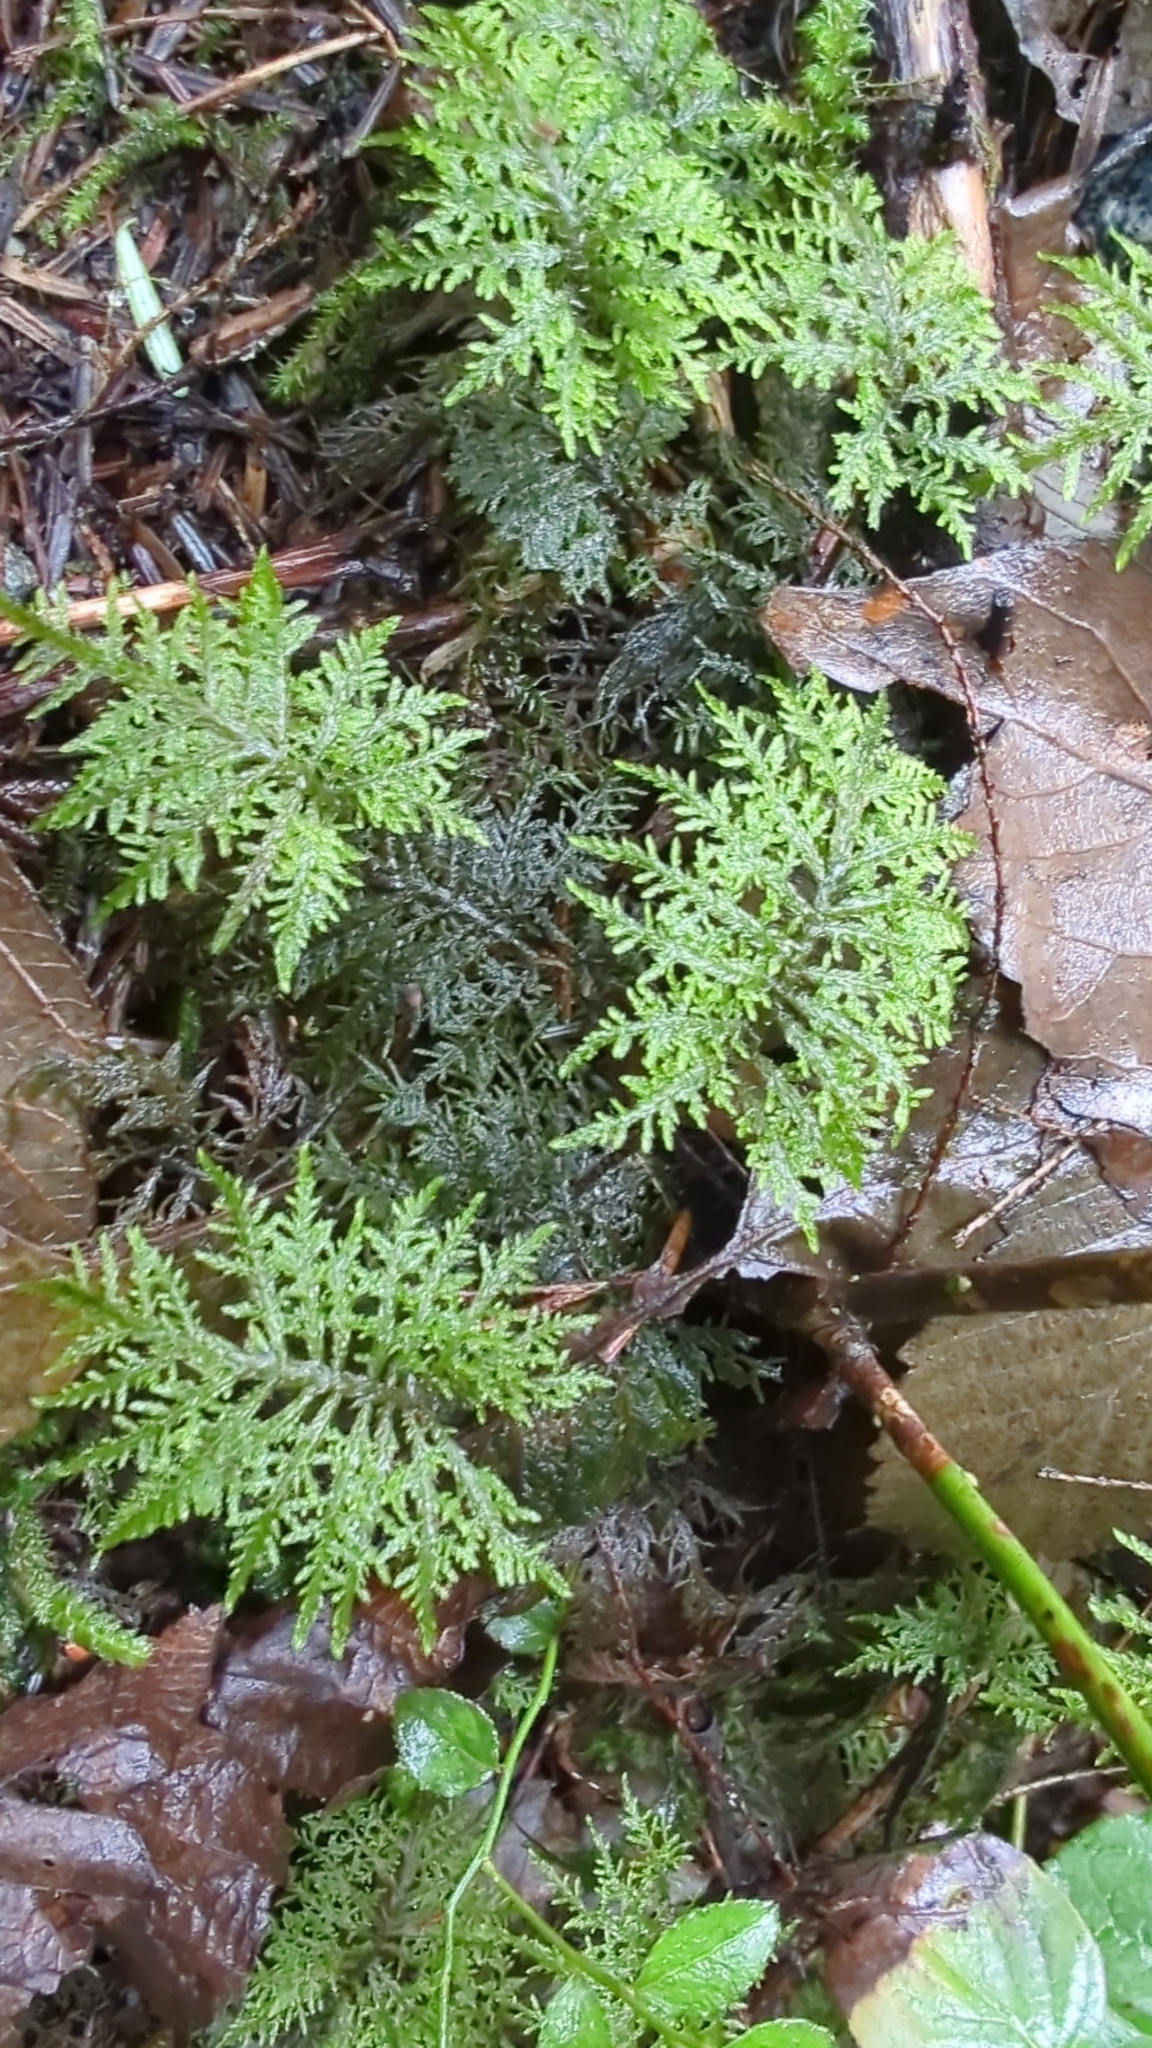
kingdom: Plantae
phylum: Bryophyta
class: Bryopsida
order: Hypnales
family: Hylocomiaceae
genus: Hylocomium
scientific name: Hylocomium splendens
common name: Stairstep moss
